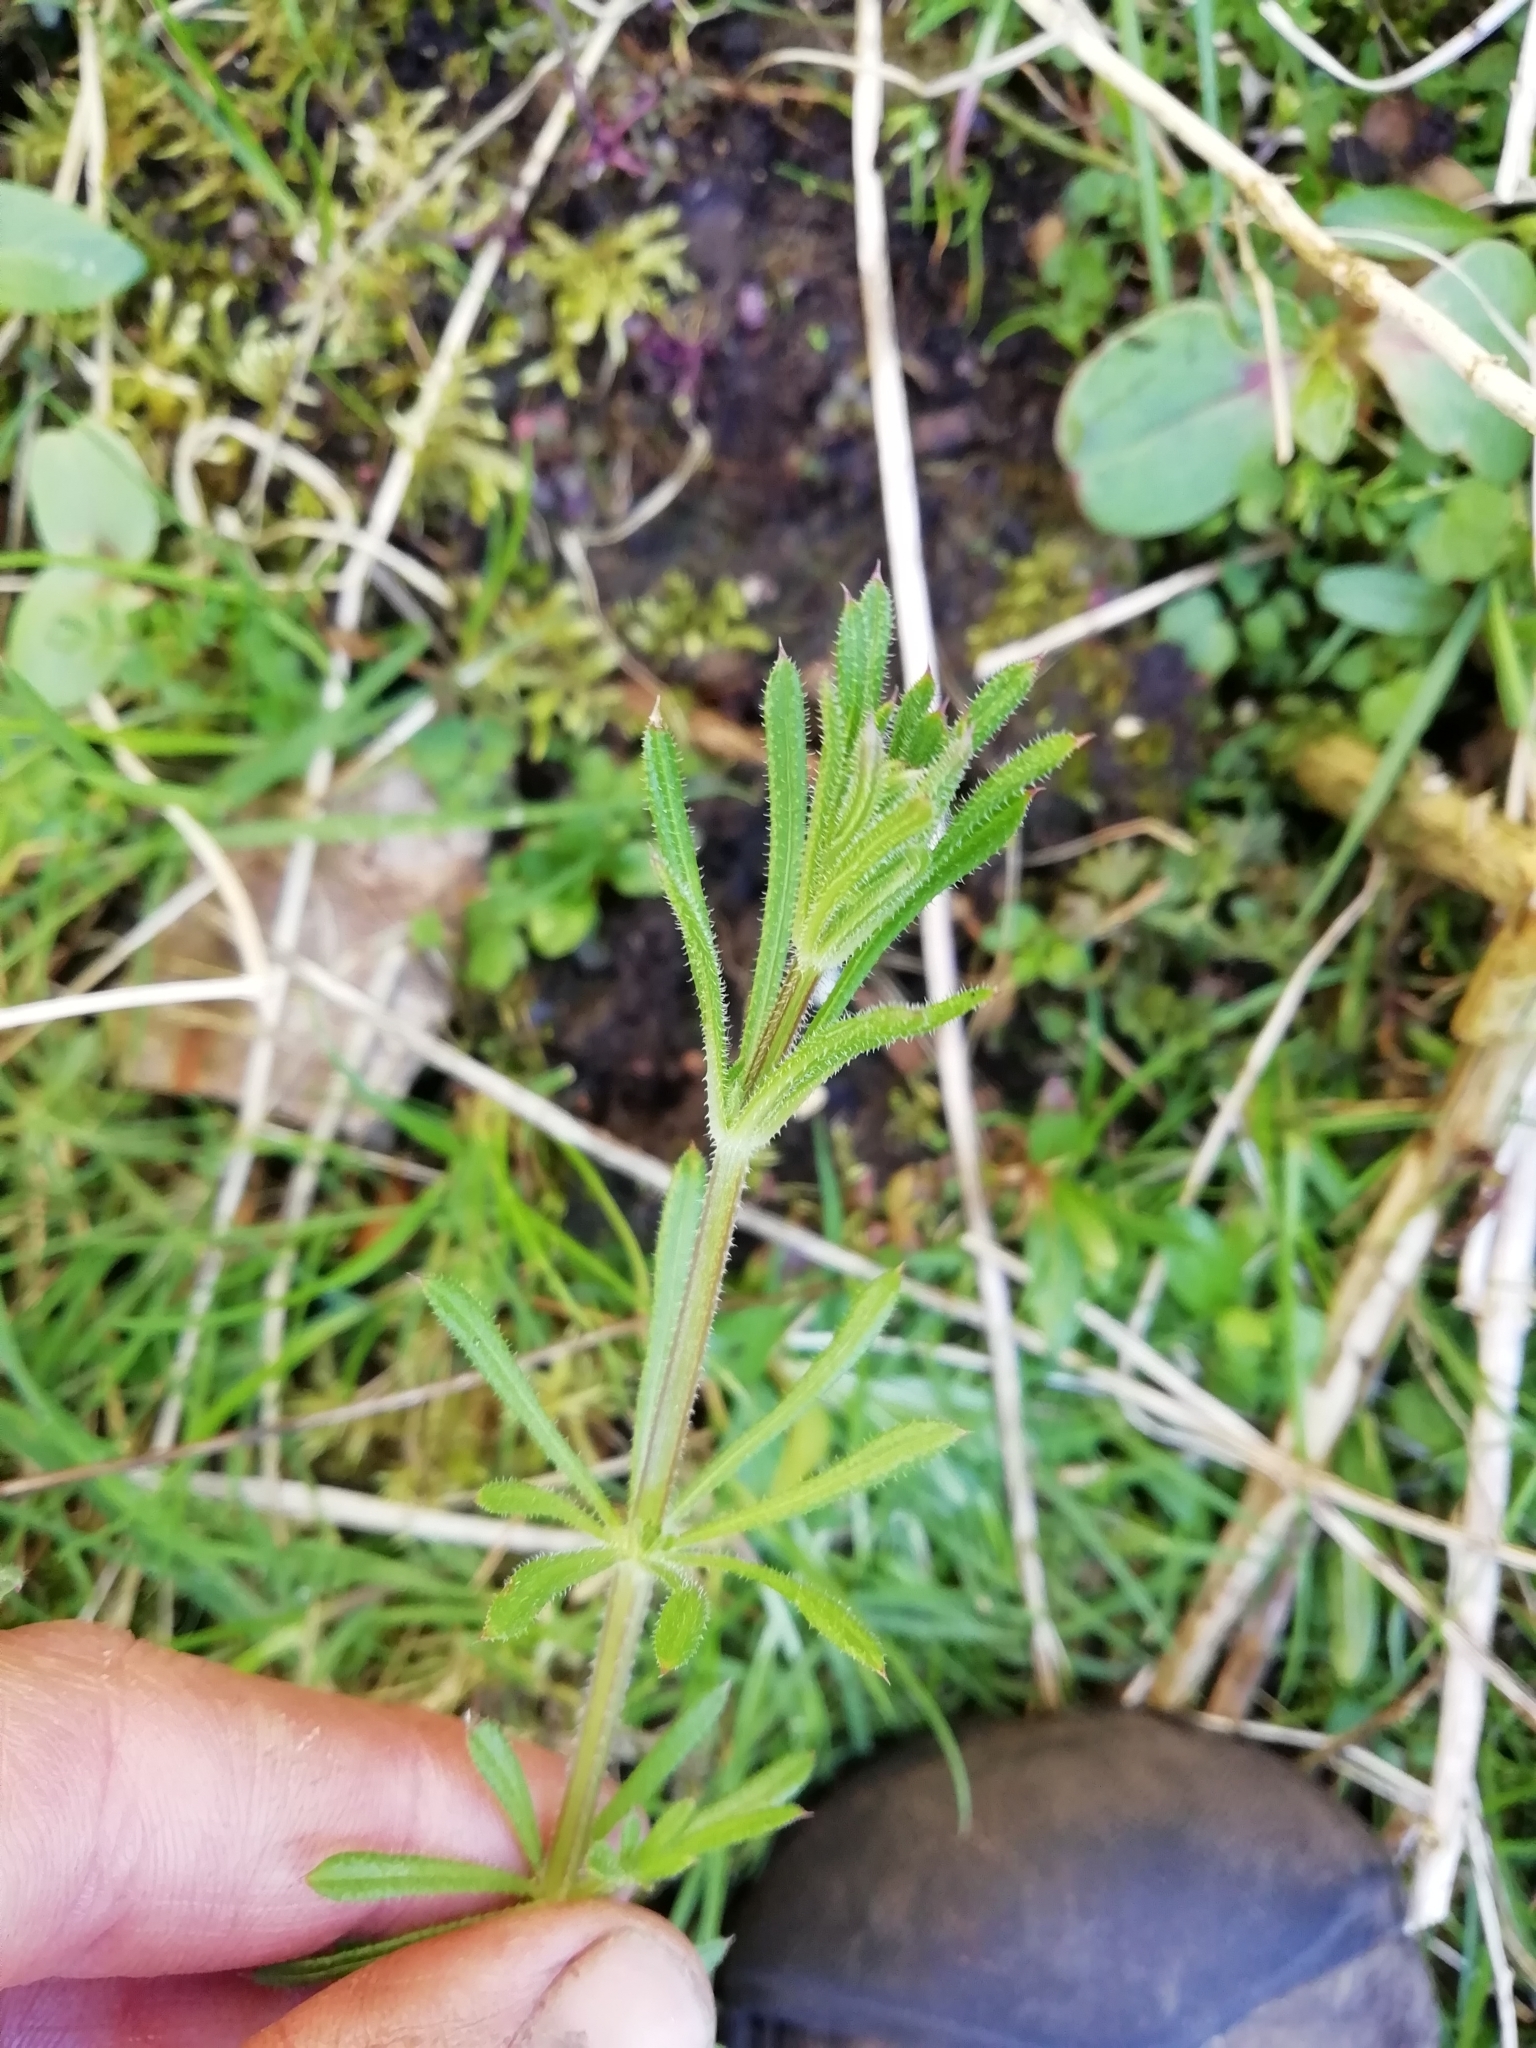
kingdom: Plantae
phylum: Tracheophyta
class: Magnoliopsida
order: Gentianales
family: Rubiaceae
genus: Galium
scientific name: Galium aparine
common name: Cleavers
